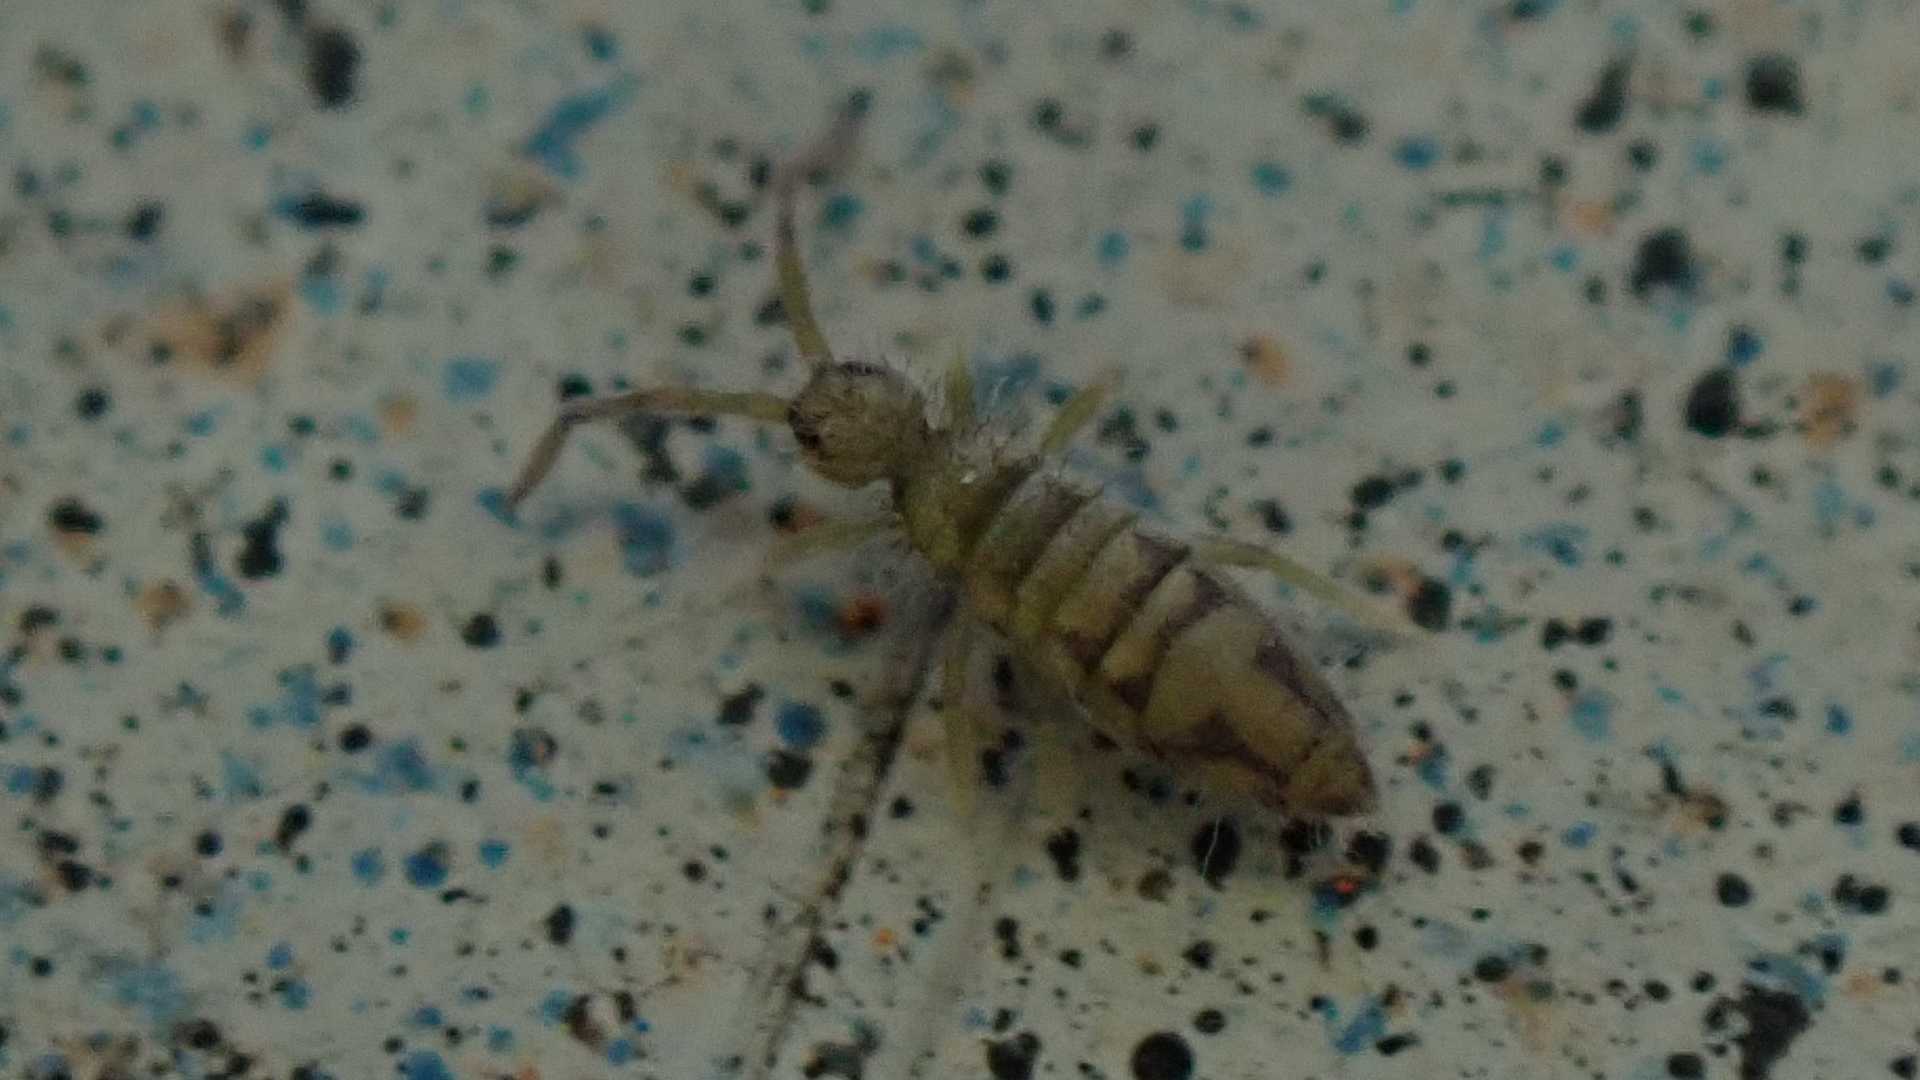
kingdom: Animalia
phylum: Arthropoda
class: Collembola
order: Entomobryomorpha
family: Entomobryidae
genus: Entomobrya
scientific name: Entomobrya nivalis
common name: Cosmopolitan springtail
